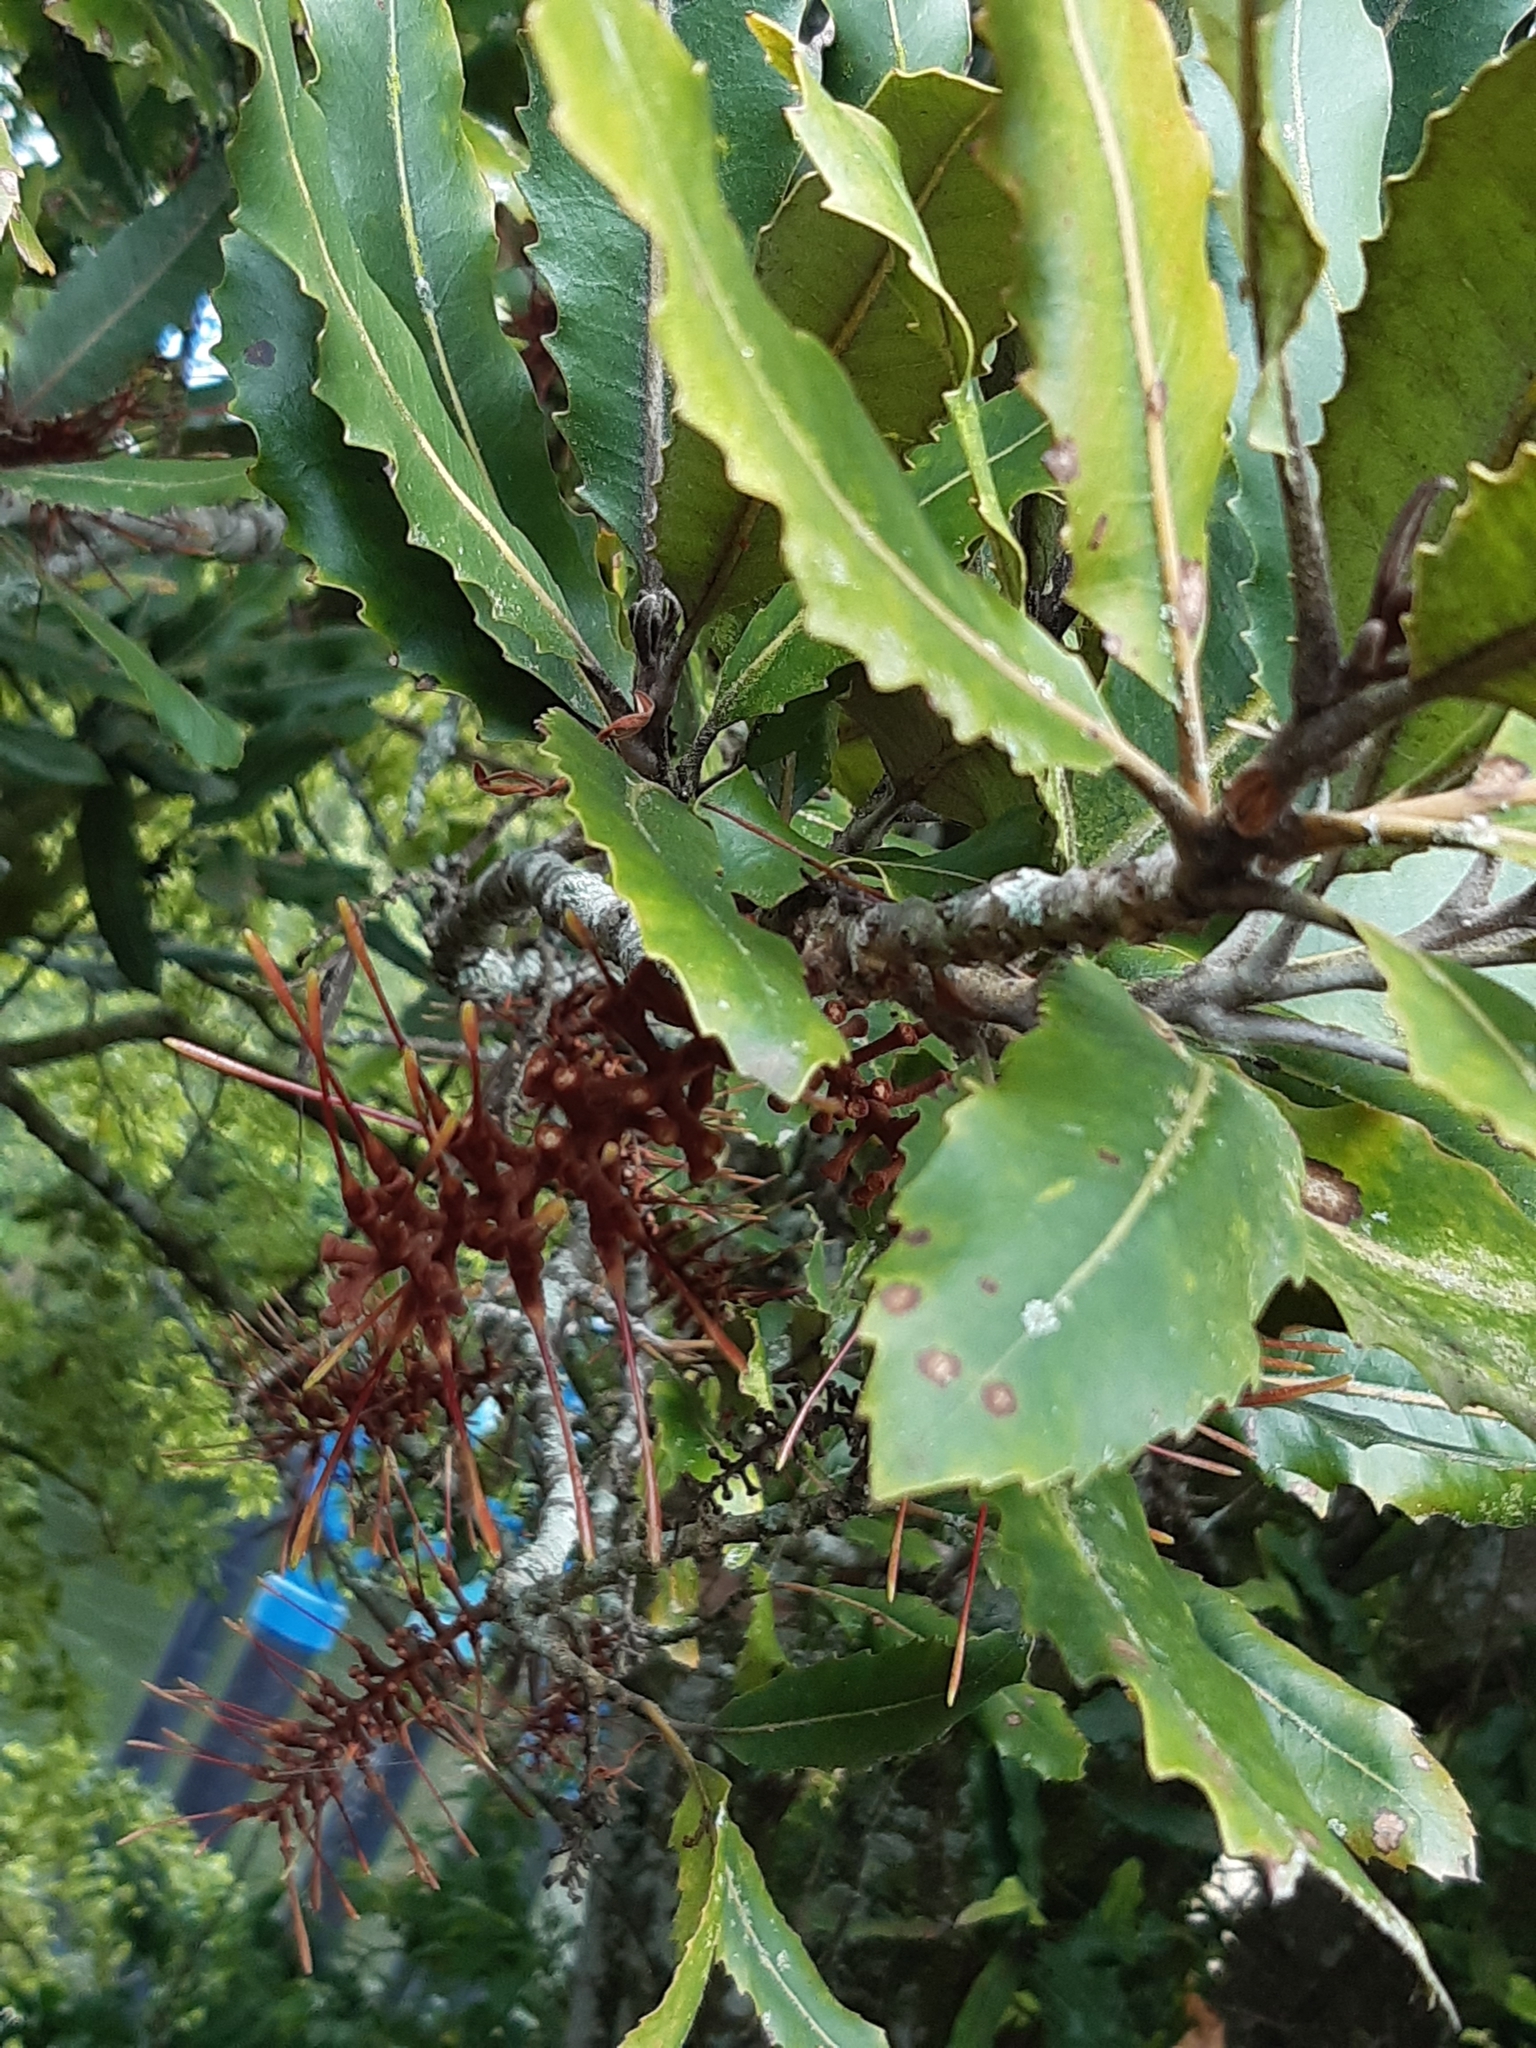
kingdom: Plantae
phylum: Tracheophyta
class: Magnoliopsida
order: Proteales
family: Proteaceae
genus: Knightia
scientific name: Knightia excelsa
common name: New zealand-honeysuckle
